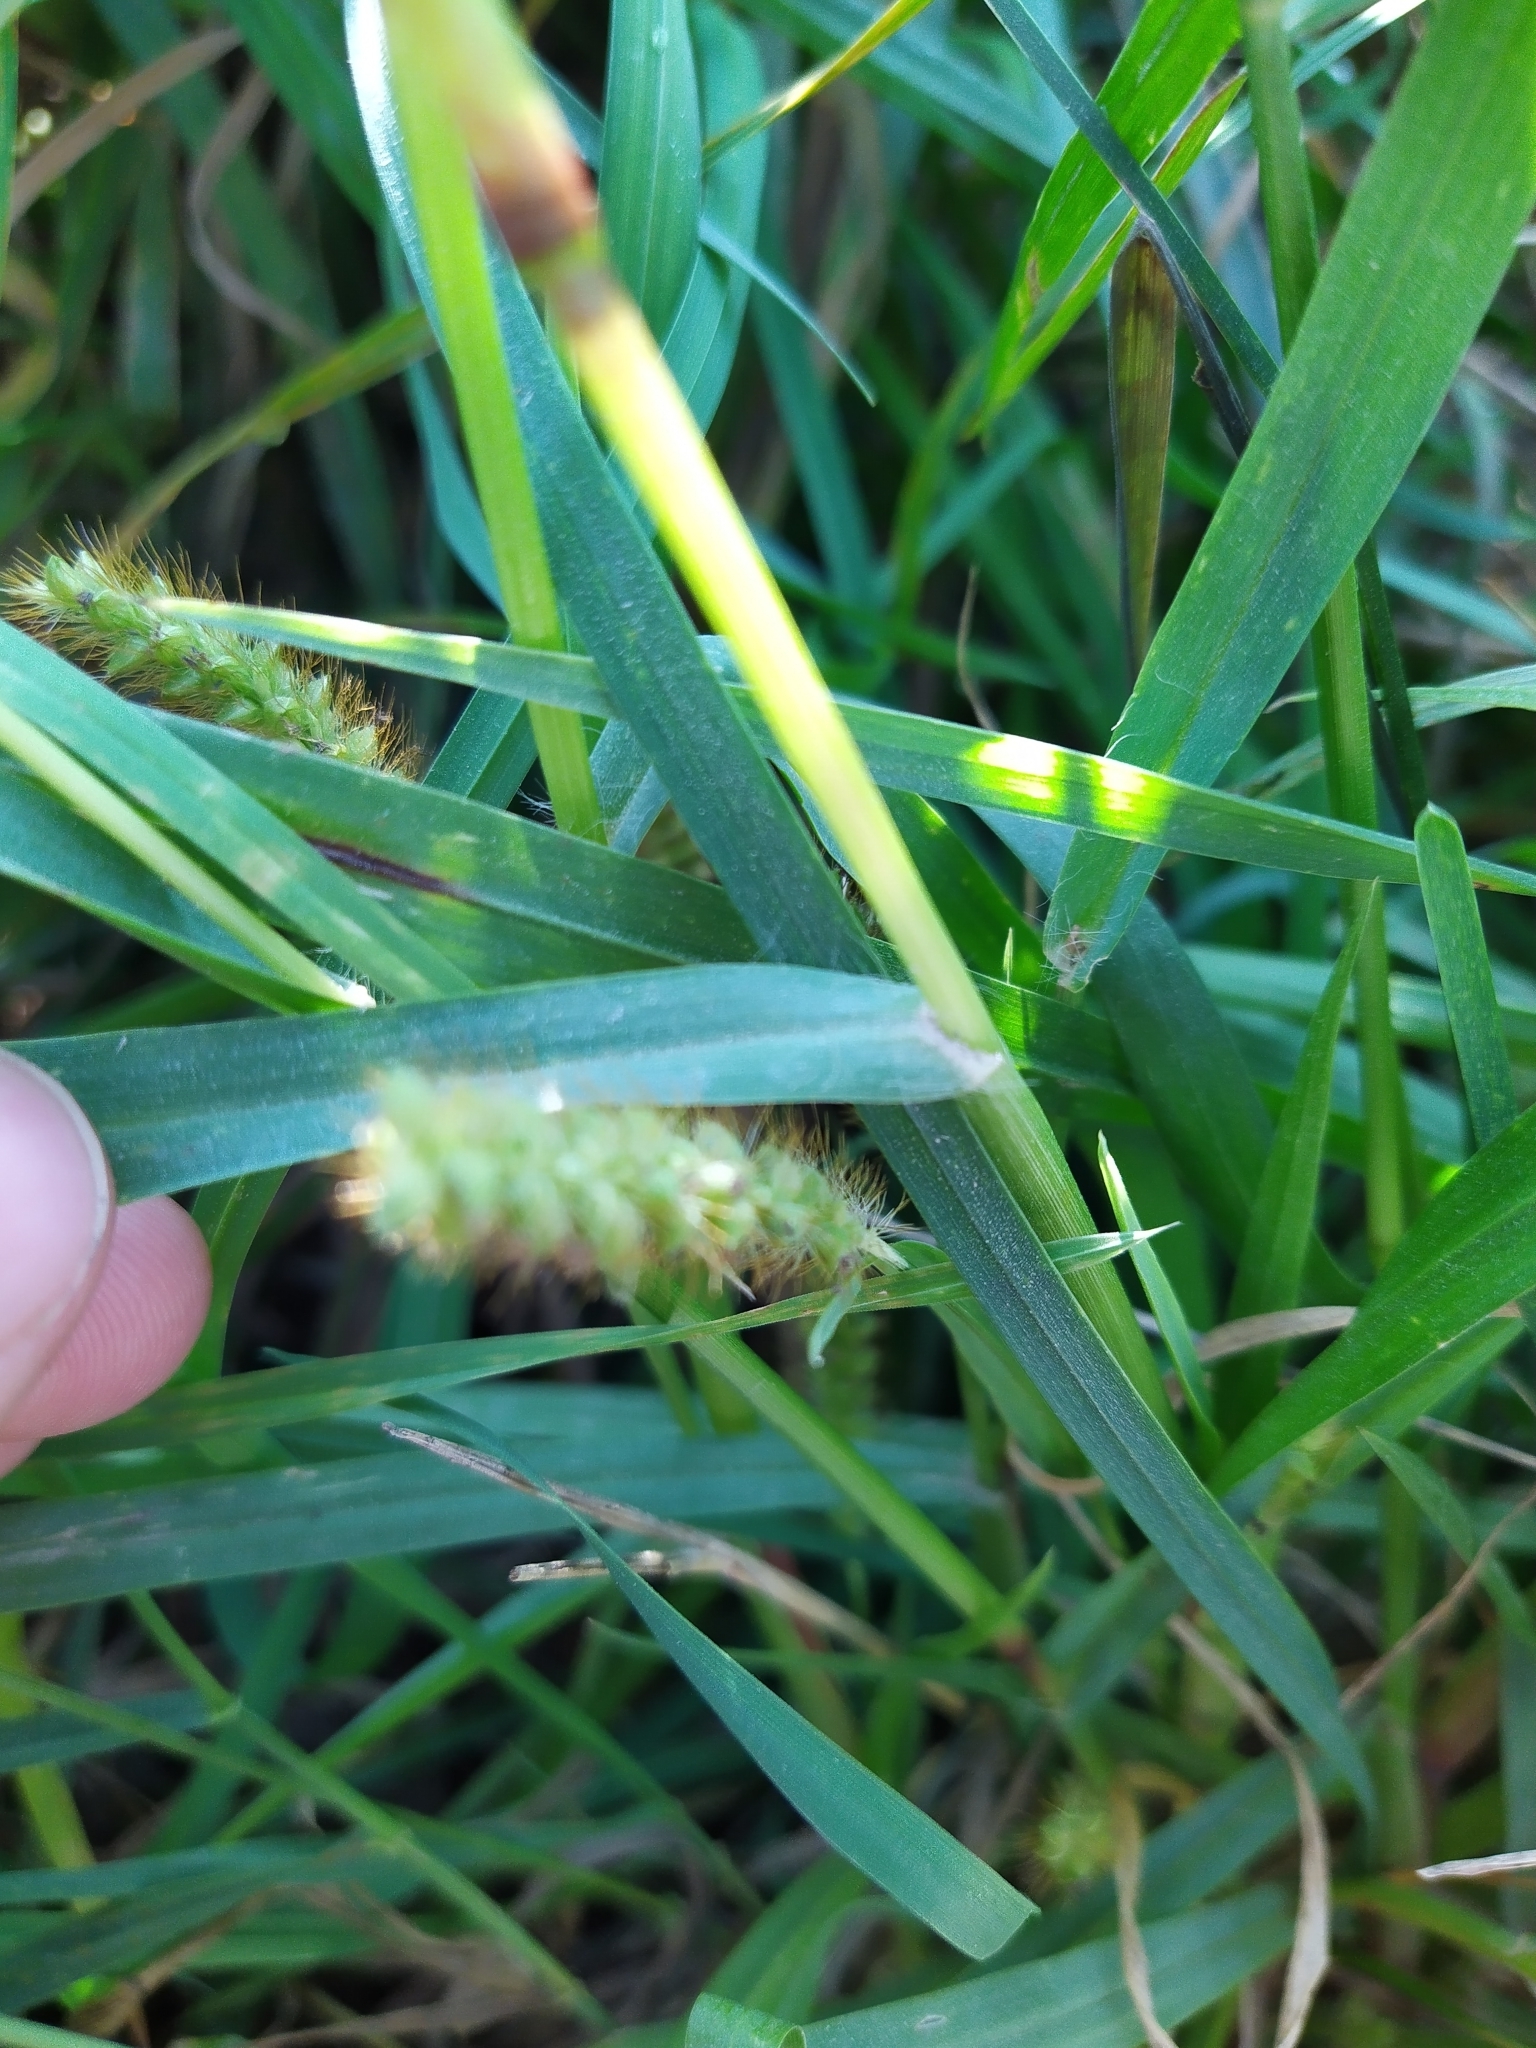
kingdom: Plantae
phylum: Tracheophyta
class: Liliopsida
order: Poales
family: Poaceae
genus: Setaria
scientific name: Setaria pumila
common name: Yellow bristle-grass
